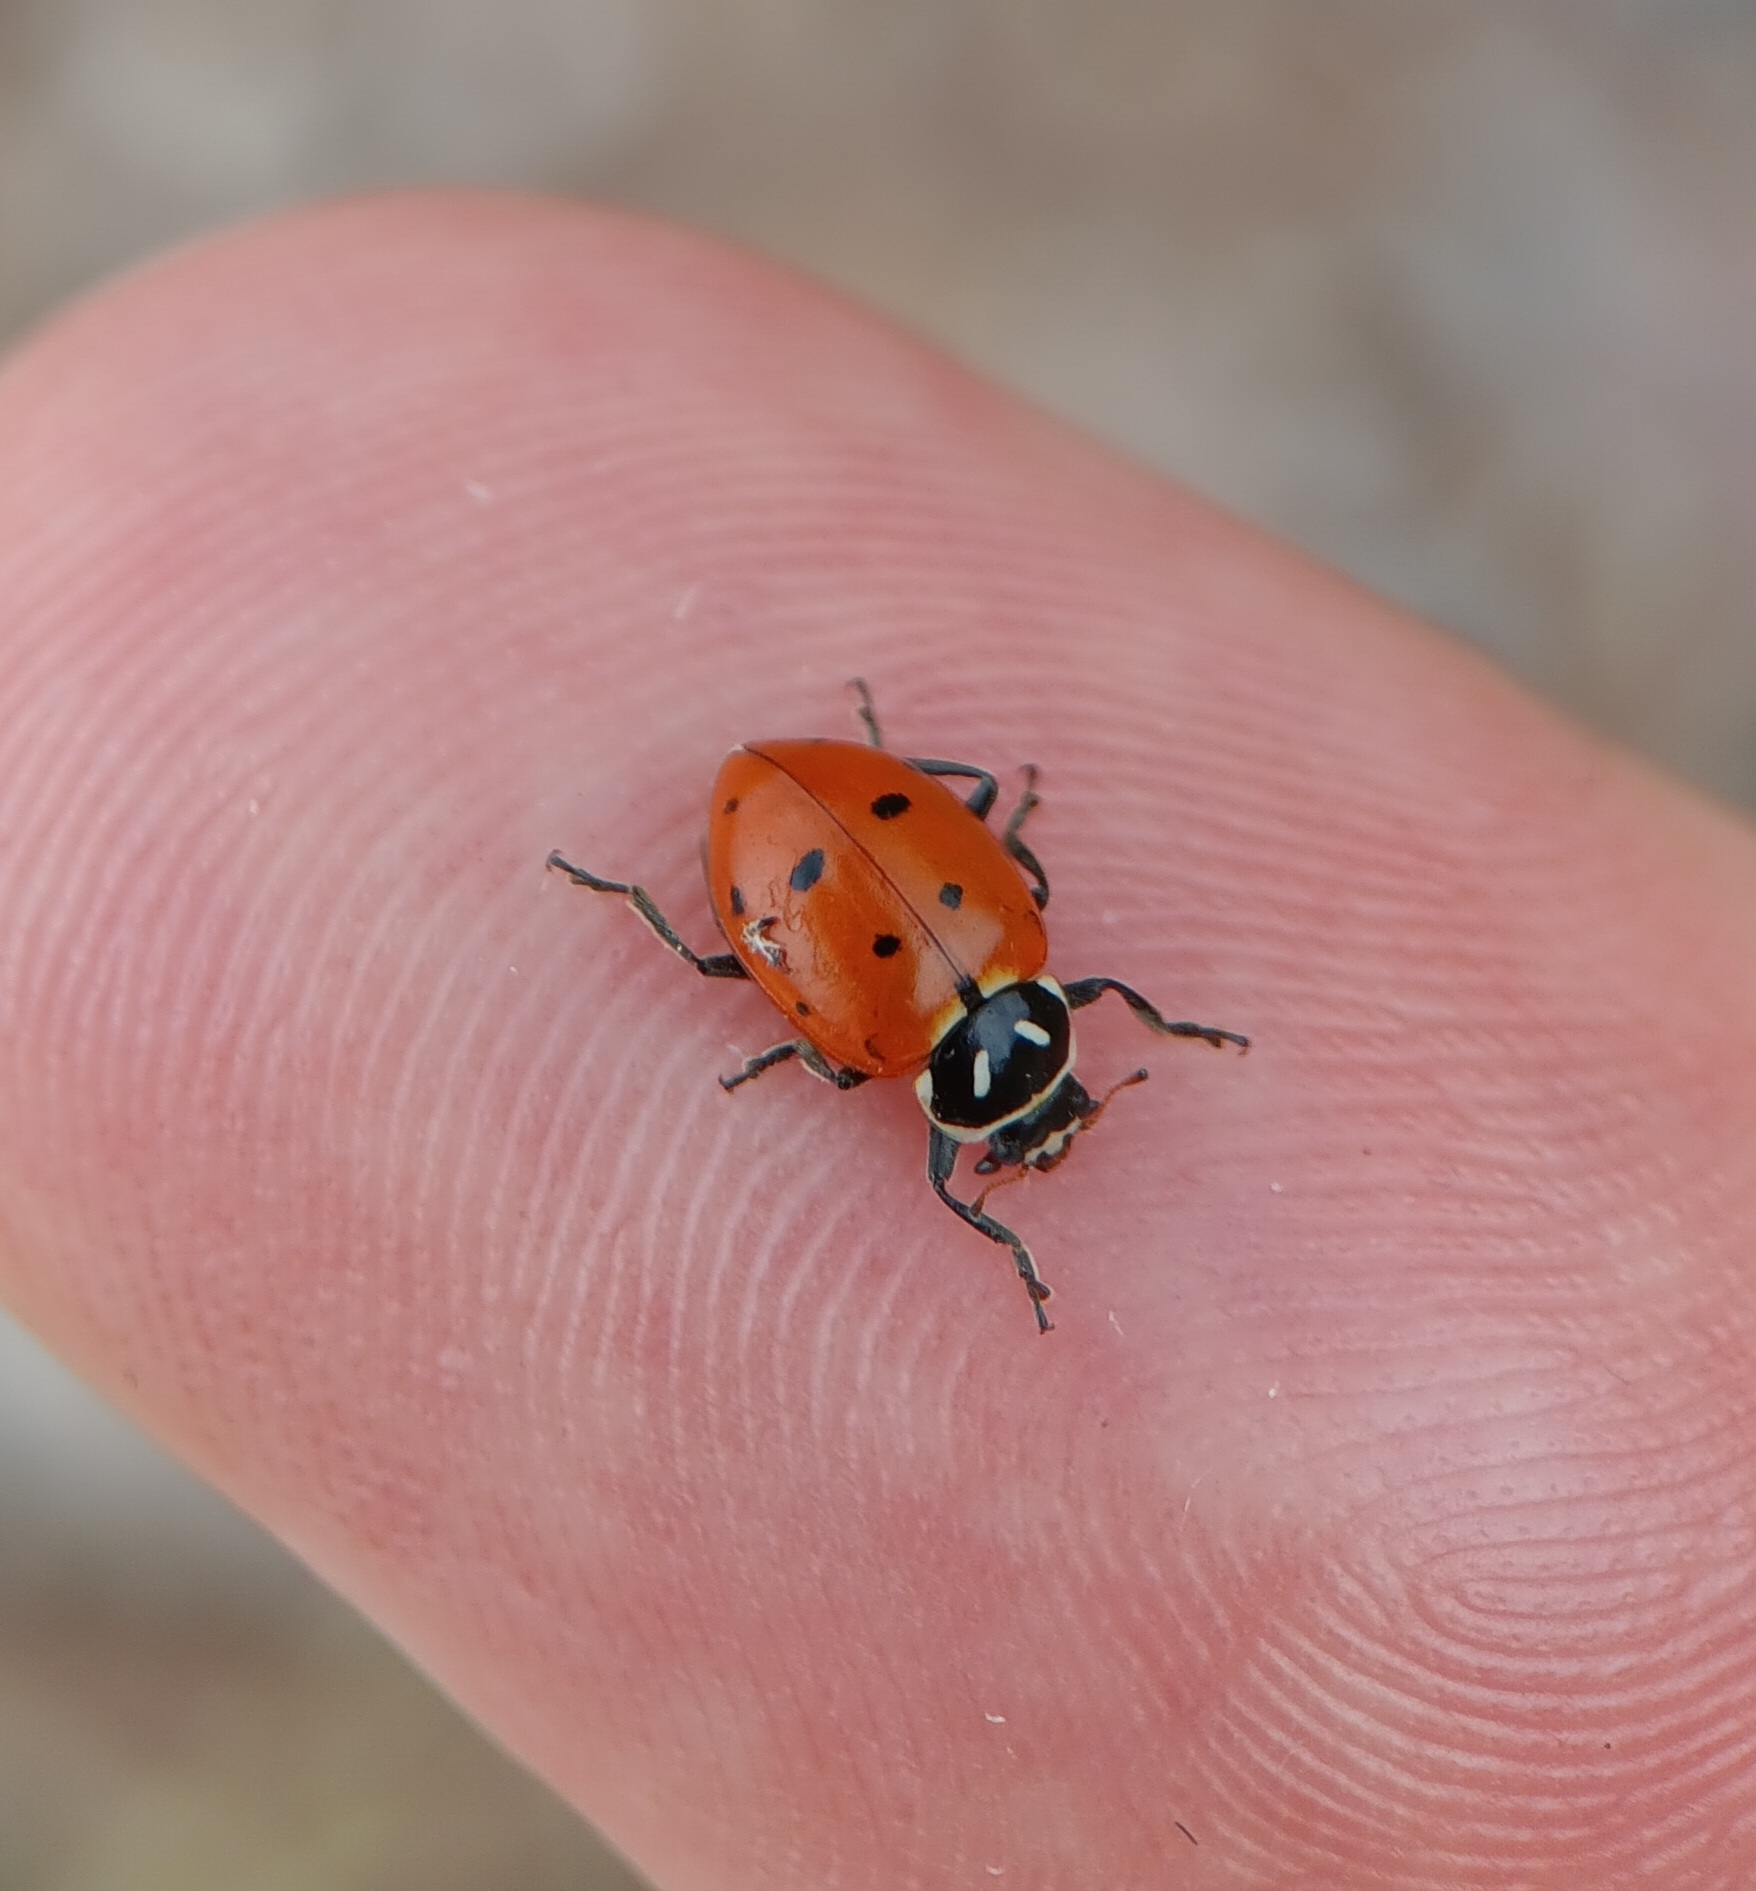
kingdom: Animalia
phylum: Arthropoda
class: Insecta
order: Coleoptera
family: Coccinellidae
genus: Hippodamia
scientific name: Hippodamia convergens
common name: Convergent lady beetle
